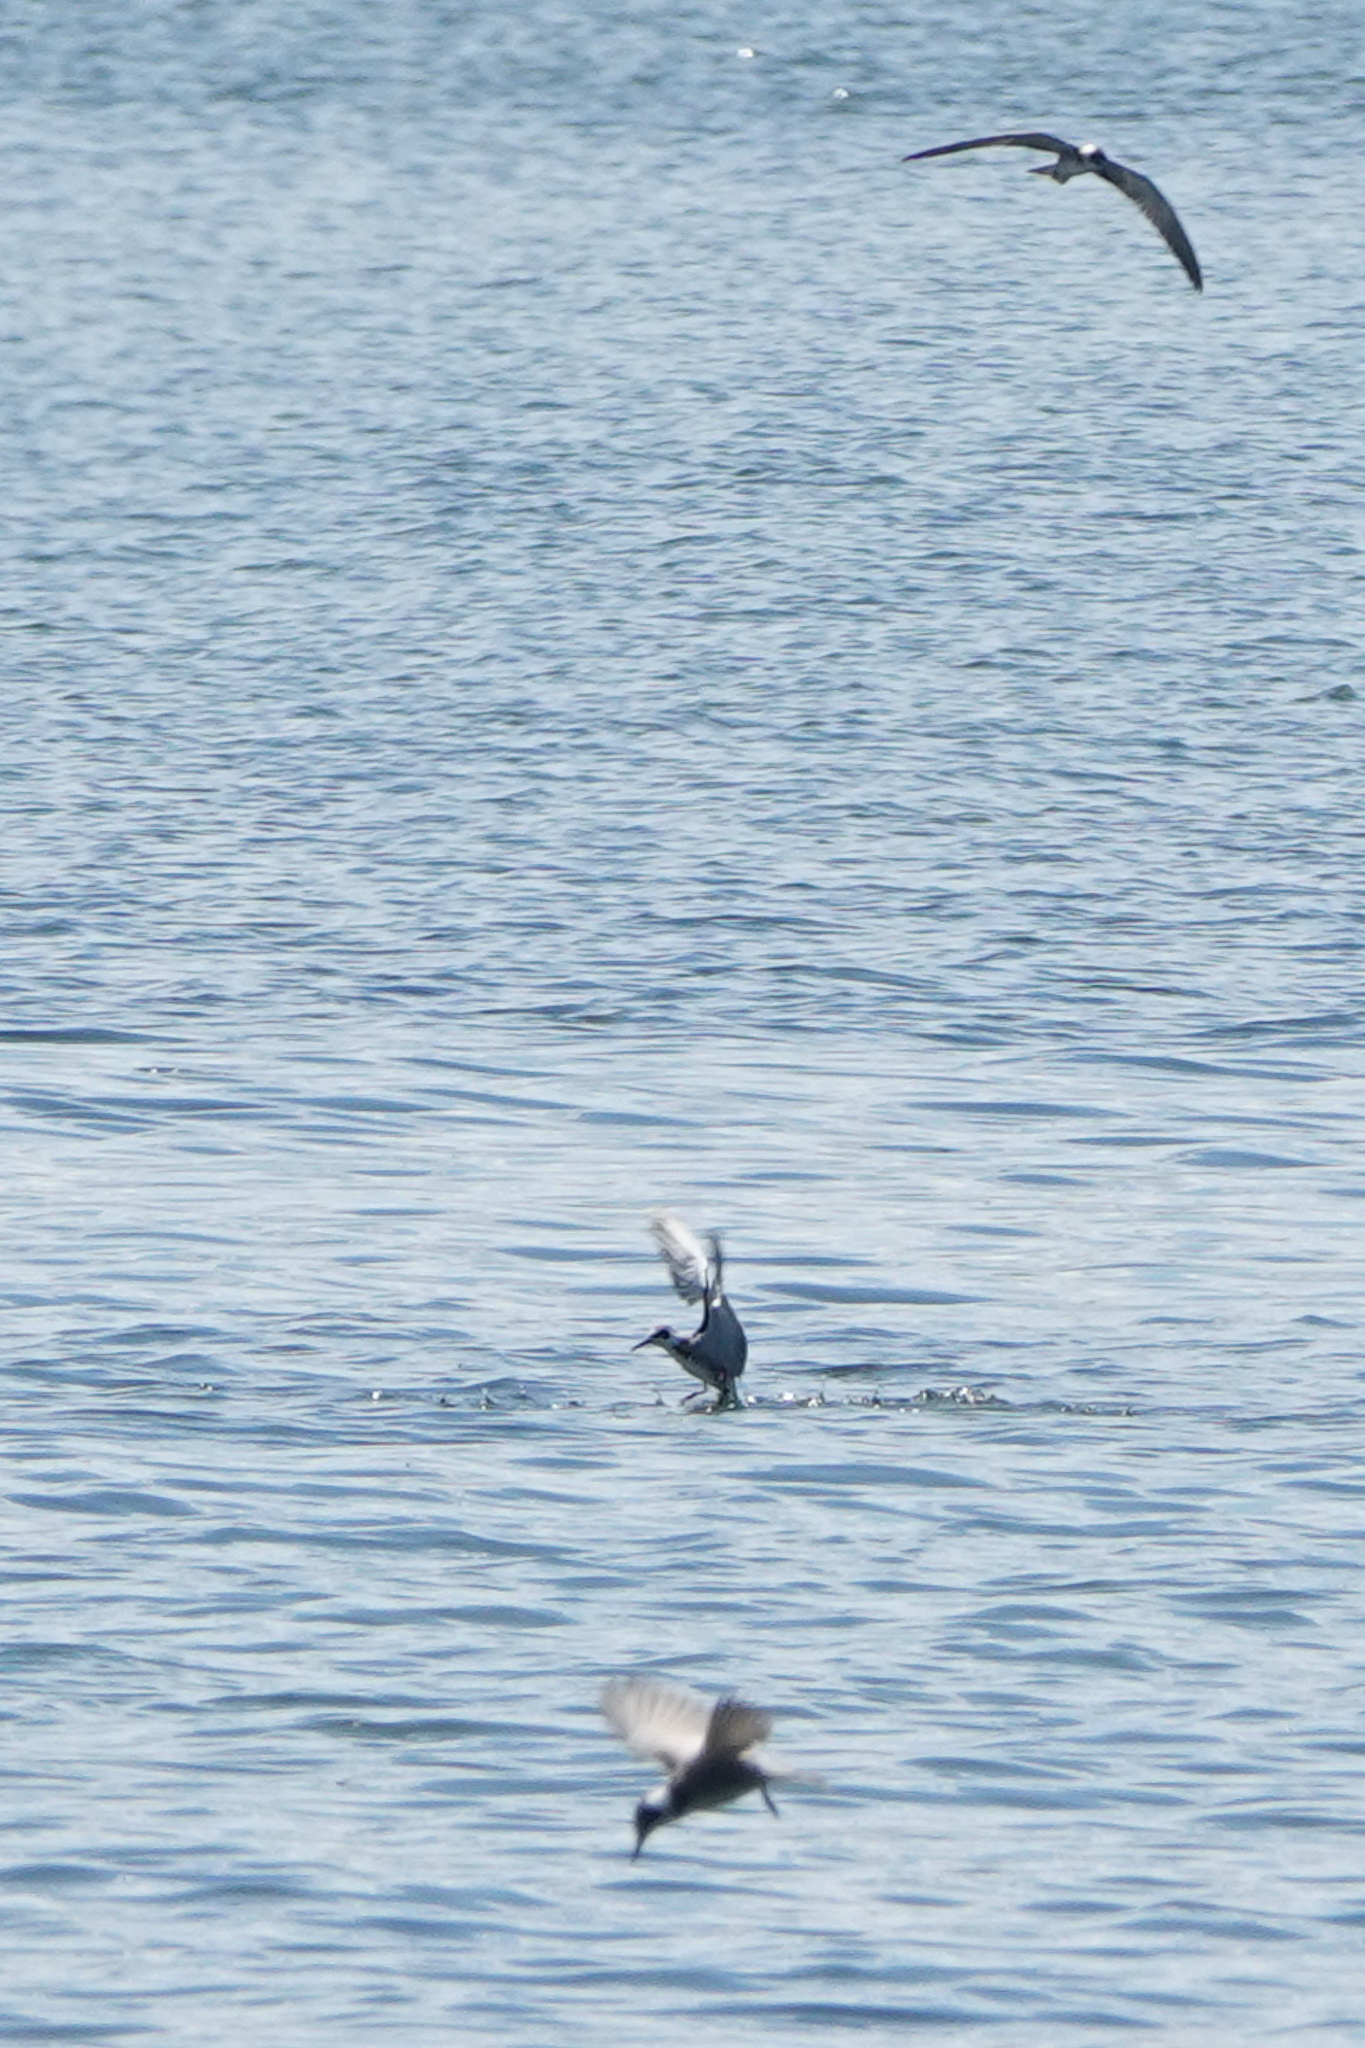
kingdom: Animalia
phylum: Chordata
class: Aves
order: Charadriiformes
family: Laridae
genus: Chlidonias
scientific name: Chlidonias niger
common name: Black tern
